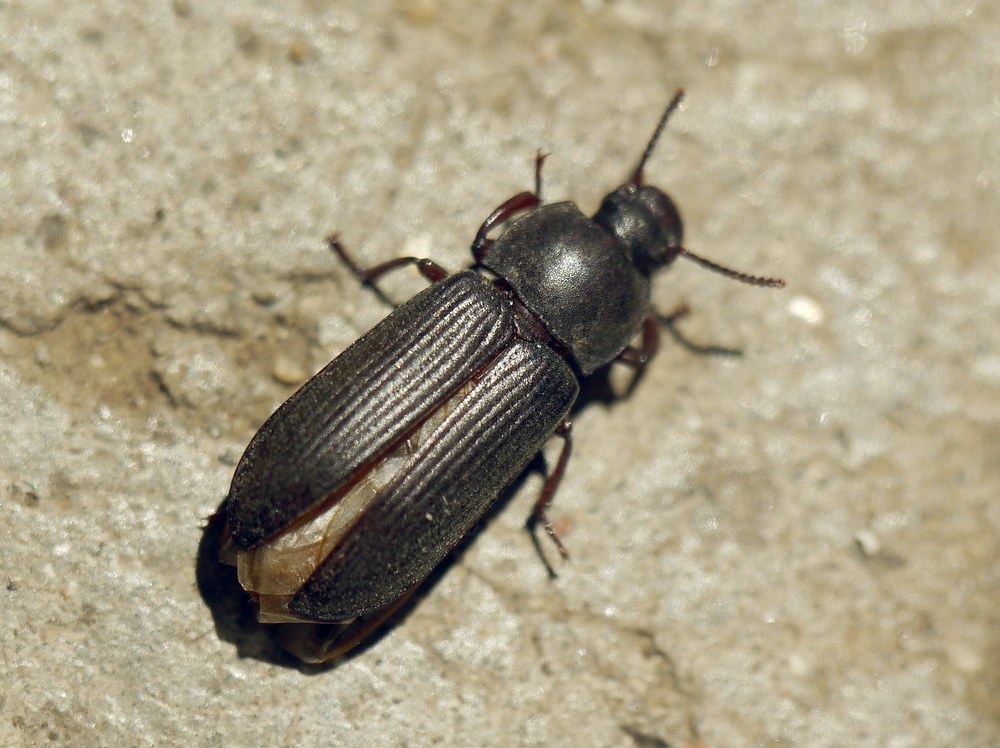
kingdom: Animalia
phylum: Arthropoda
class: Insecta
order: Coleoptera
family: Tenebrionidae
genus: Tenebrio
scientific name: Tenebrio molitor
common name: Hardback beetle
